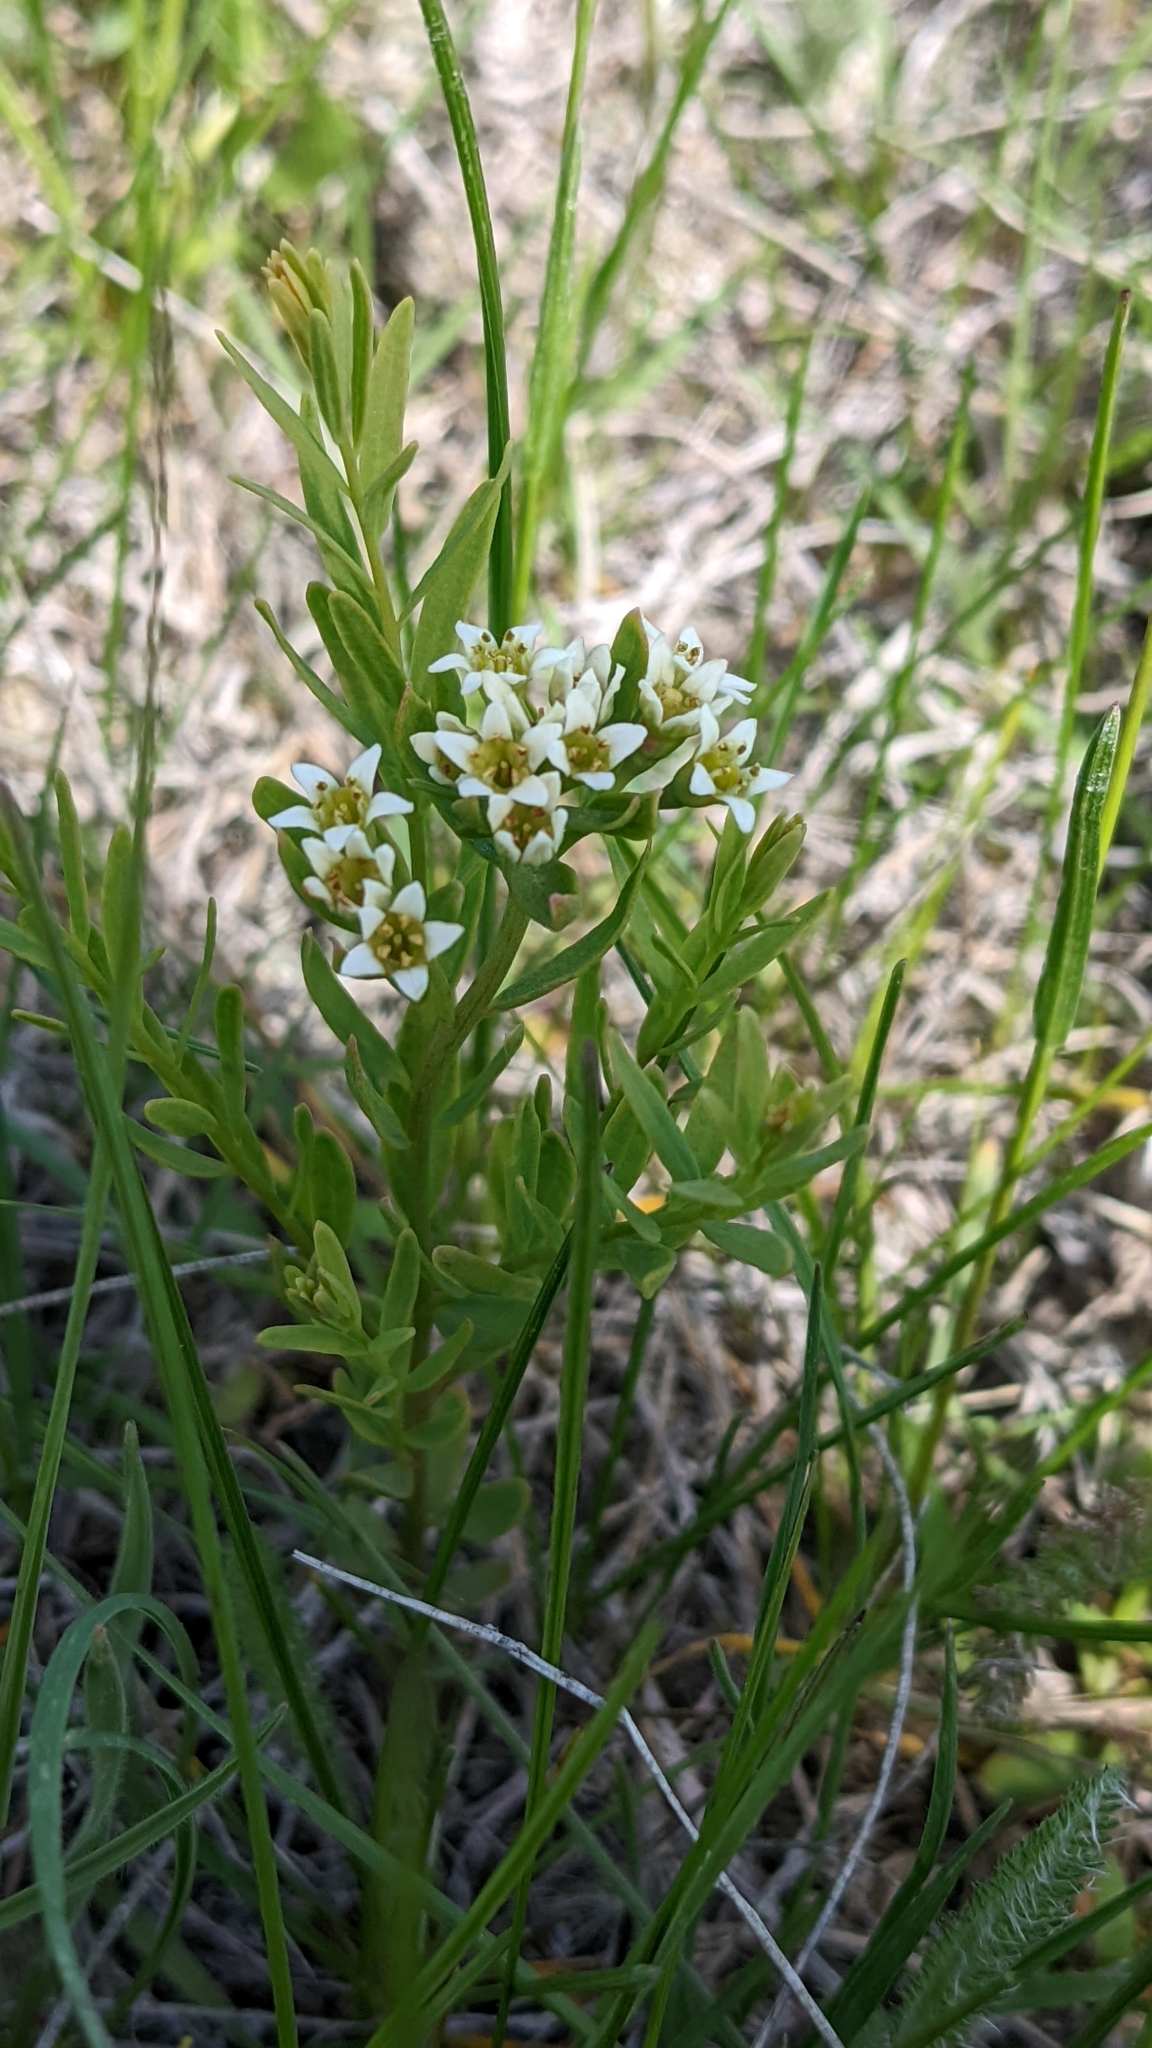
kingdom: Plantae
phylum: Tracheophyta
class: Magnoliopsida
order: Santalales
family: Comandraceae
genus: Comandra
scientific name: Comandra umbellata
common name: Bastard toadflax
